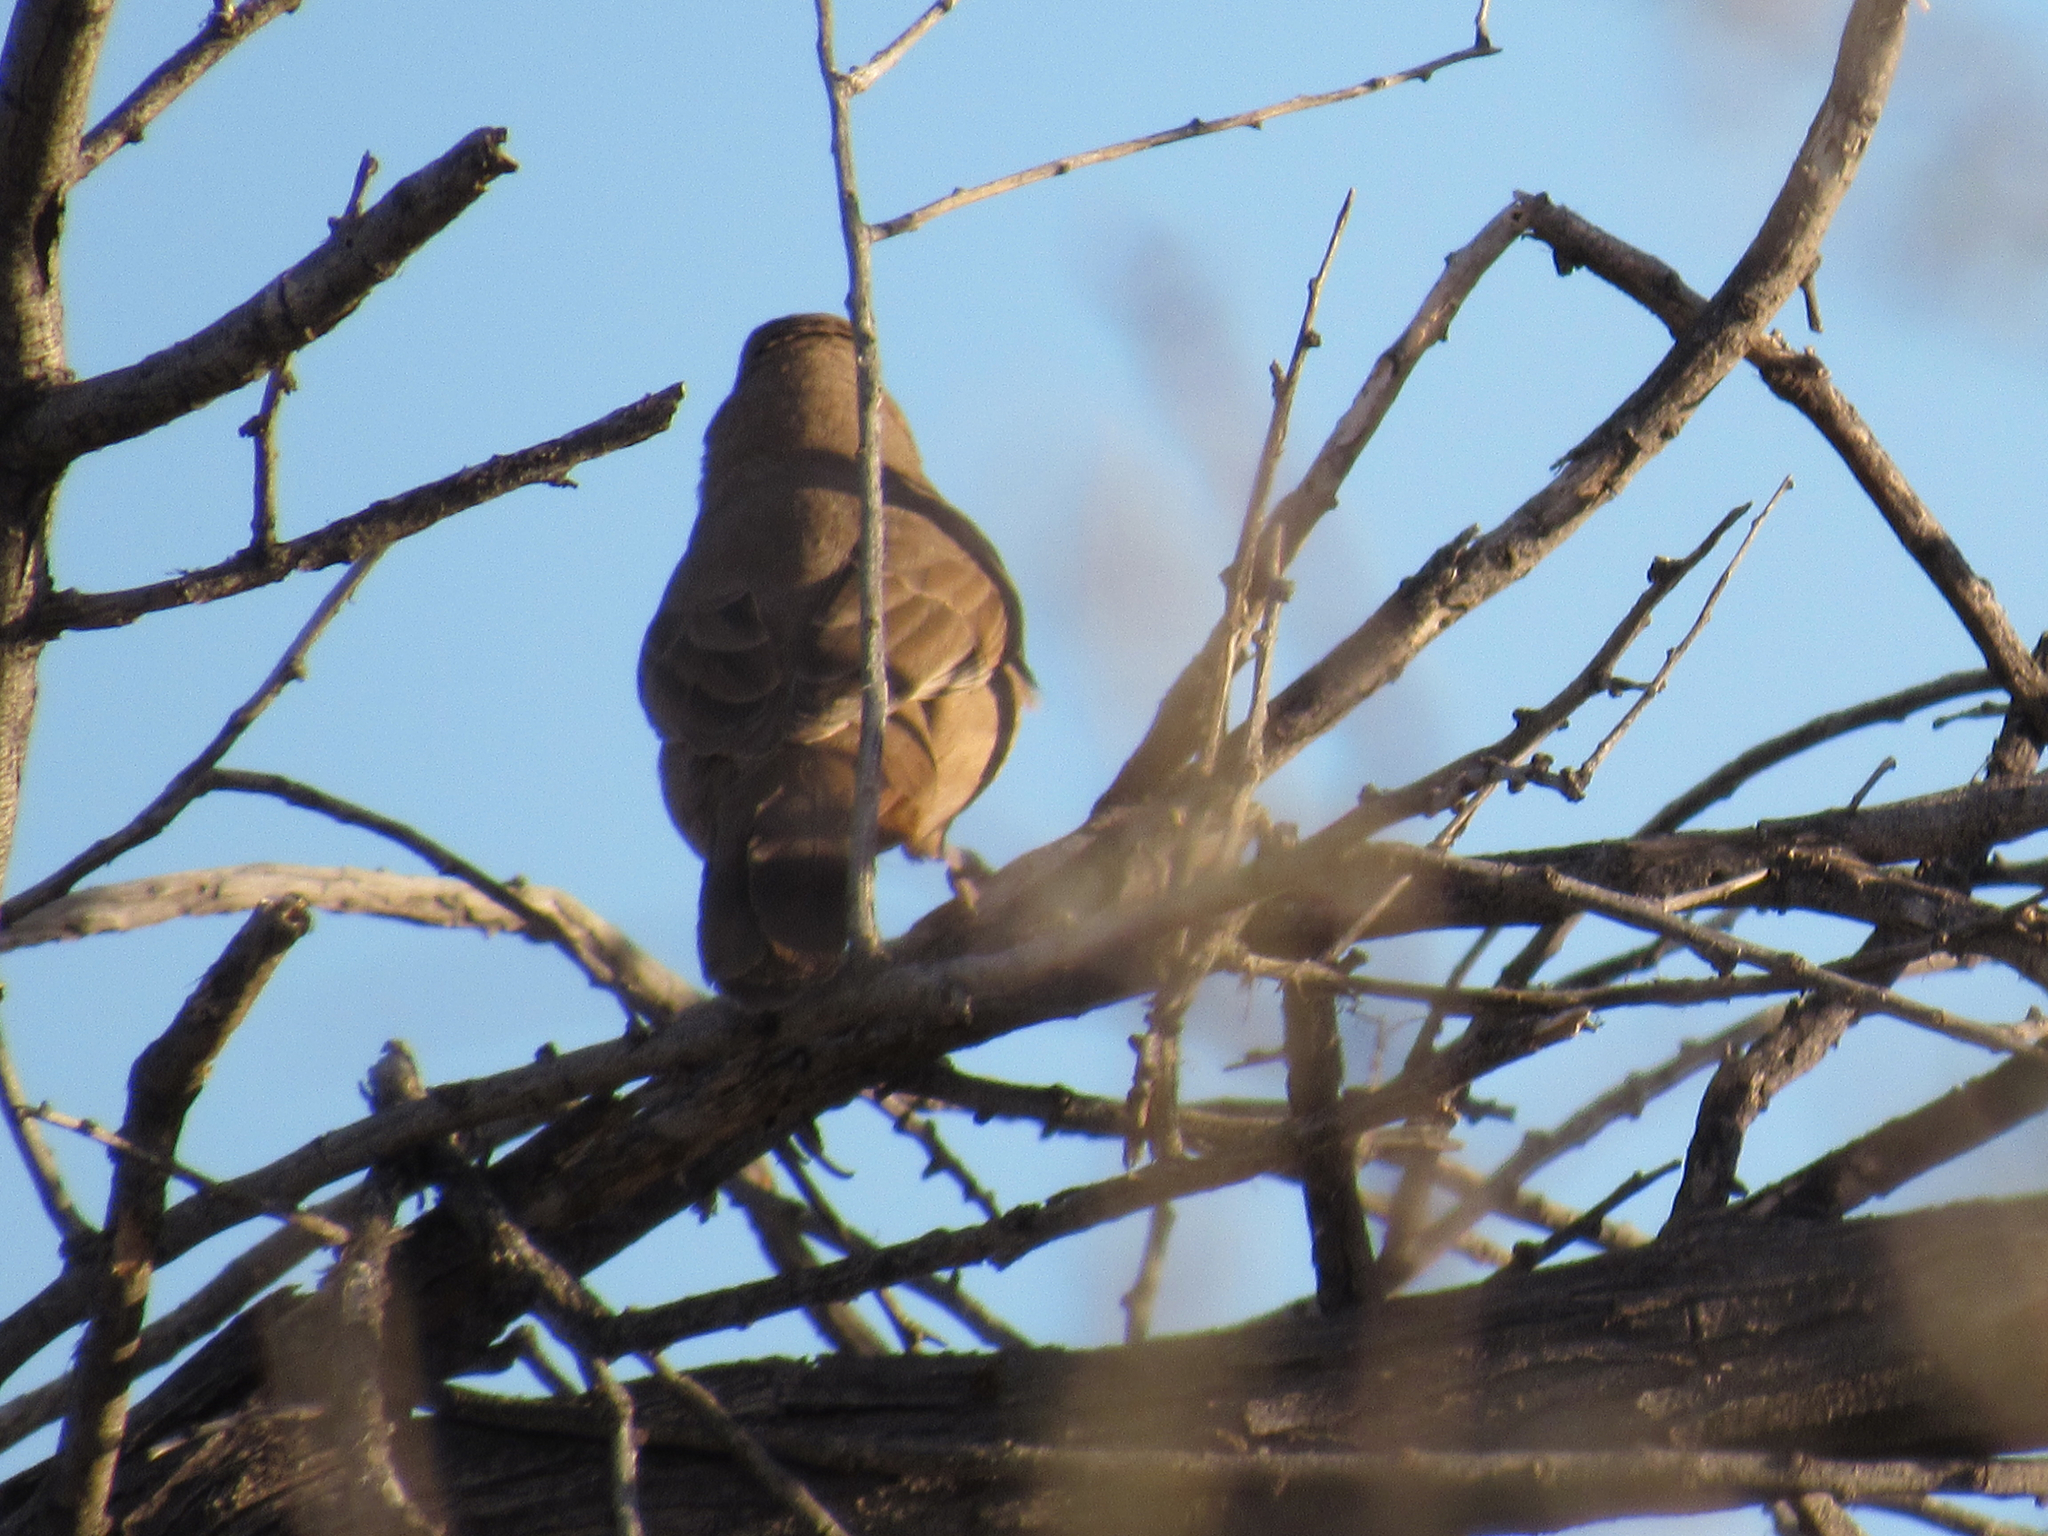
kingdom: Animalia
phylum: Chordata
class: Aves
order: Passeriformes
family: Passerellidae
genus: Melozone
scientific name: Melozone aberti
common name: Abert's towhee
